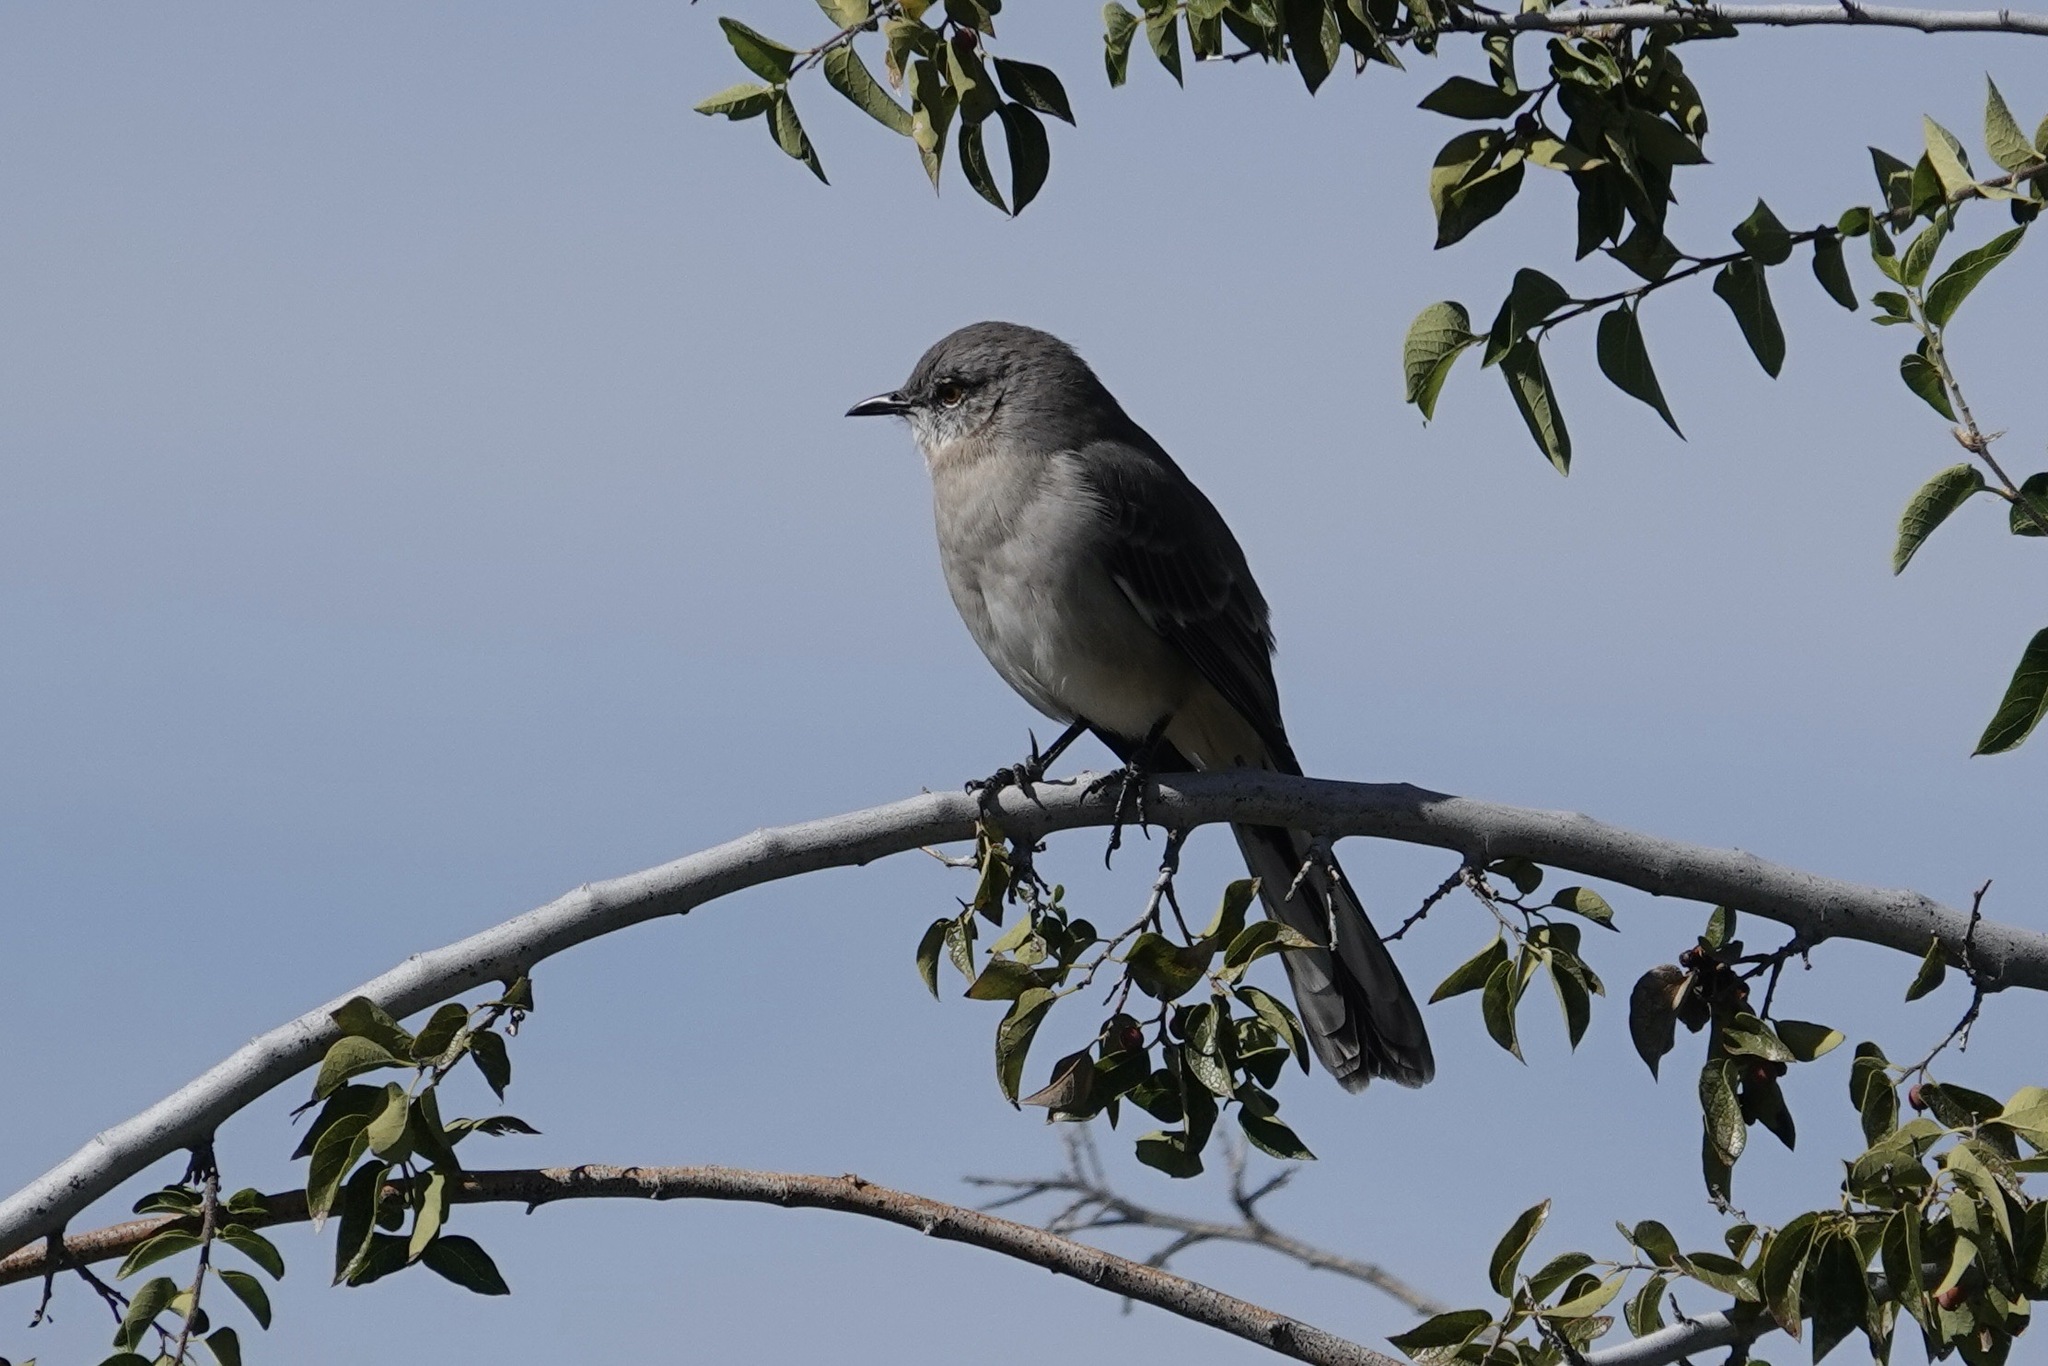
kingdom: Animalia
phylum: Chordata
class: Aves
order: Passeriformes
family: Mimidae
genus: Mimus
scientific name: Mimus polyglottos
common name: Northern mockingbird
